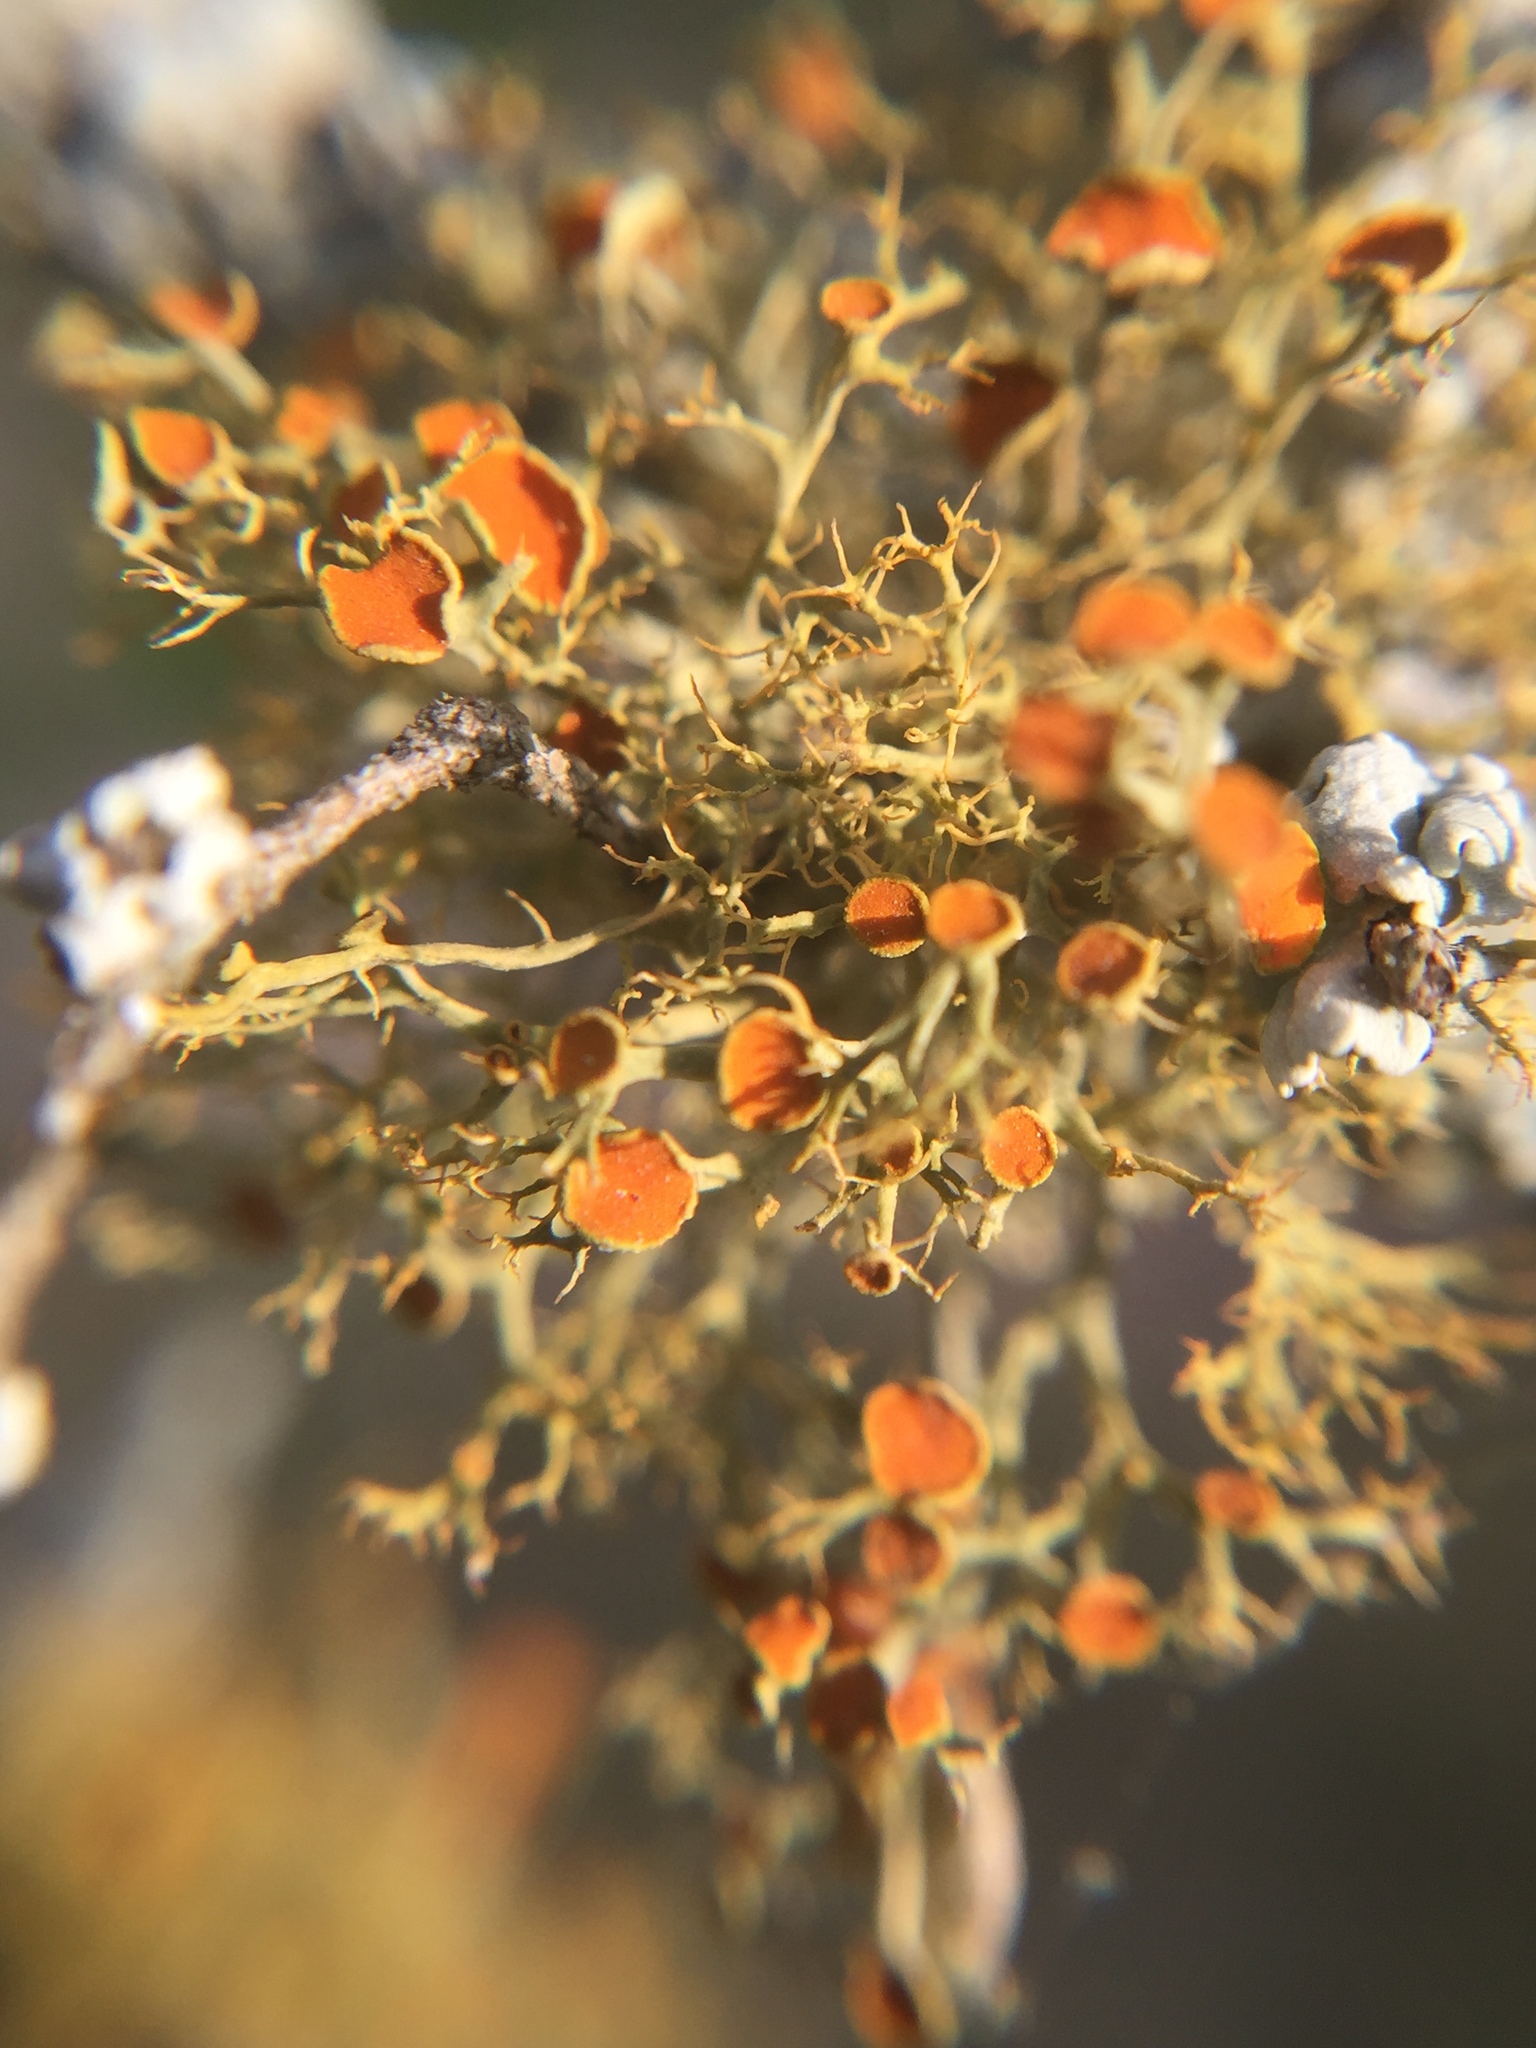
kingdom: Fungi
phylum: Ascomycota
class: Lecanoromycetes
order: Teloschistales
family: Teloschistaceae
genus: Teloschistes
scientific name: Teloschistes exilis
